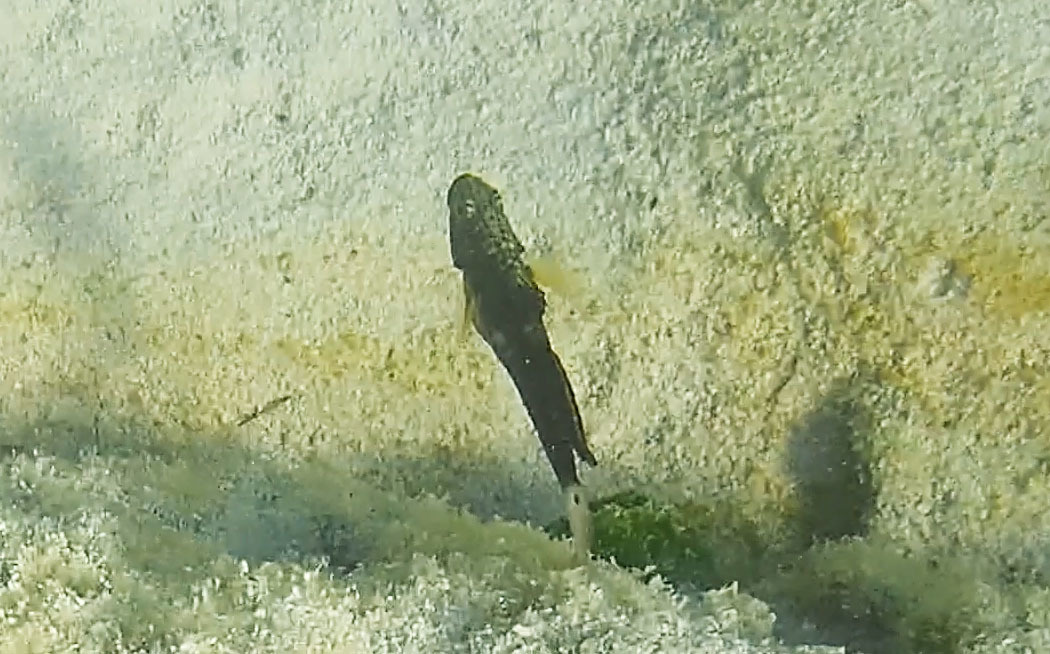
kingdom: Animalia
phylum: Chordata
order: Perciformes
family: Gobiidae
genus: Amblygobius
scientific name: Amblygobius phalaena
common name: Banded goby
